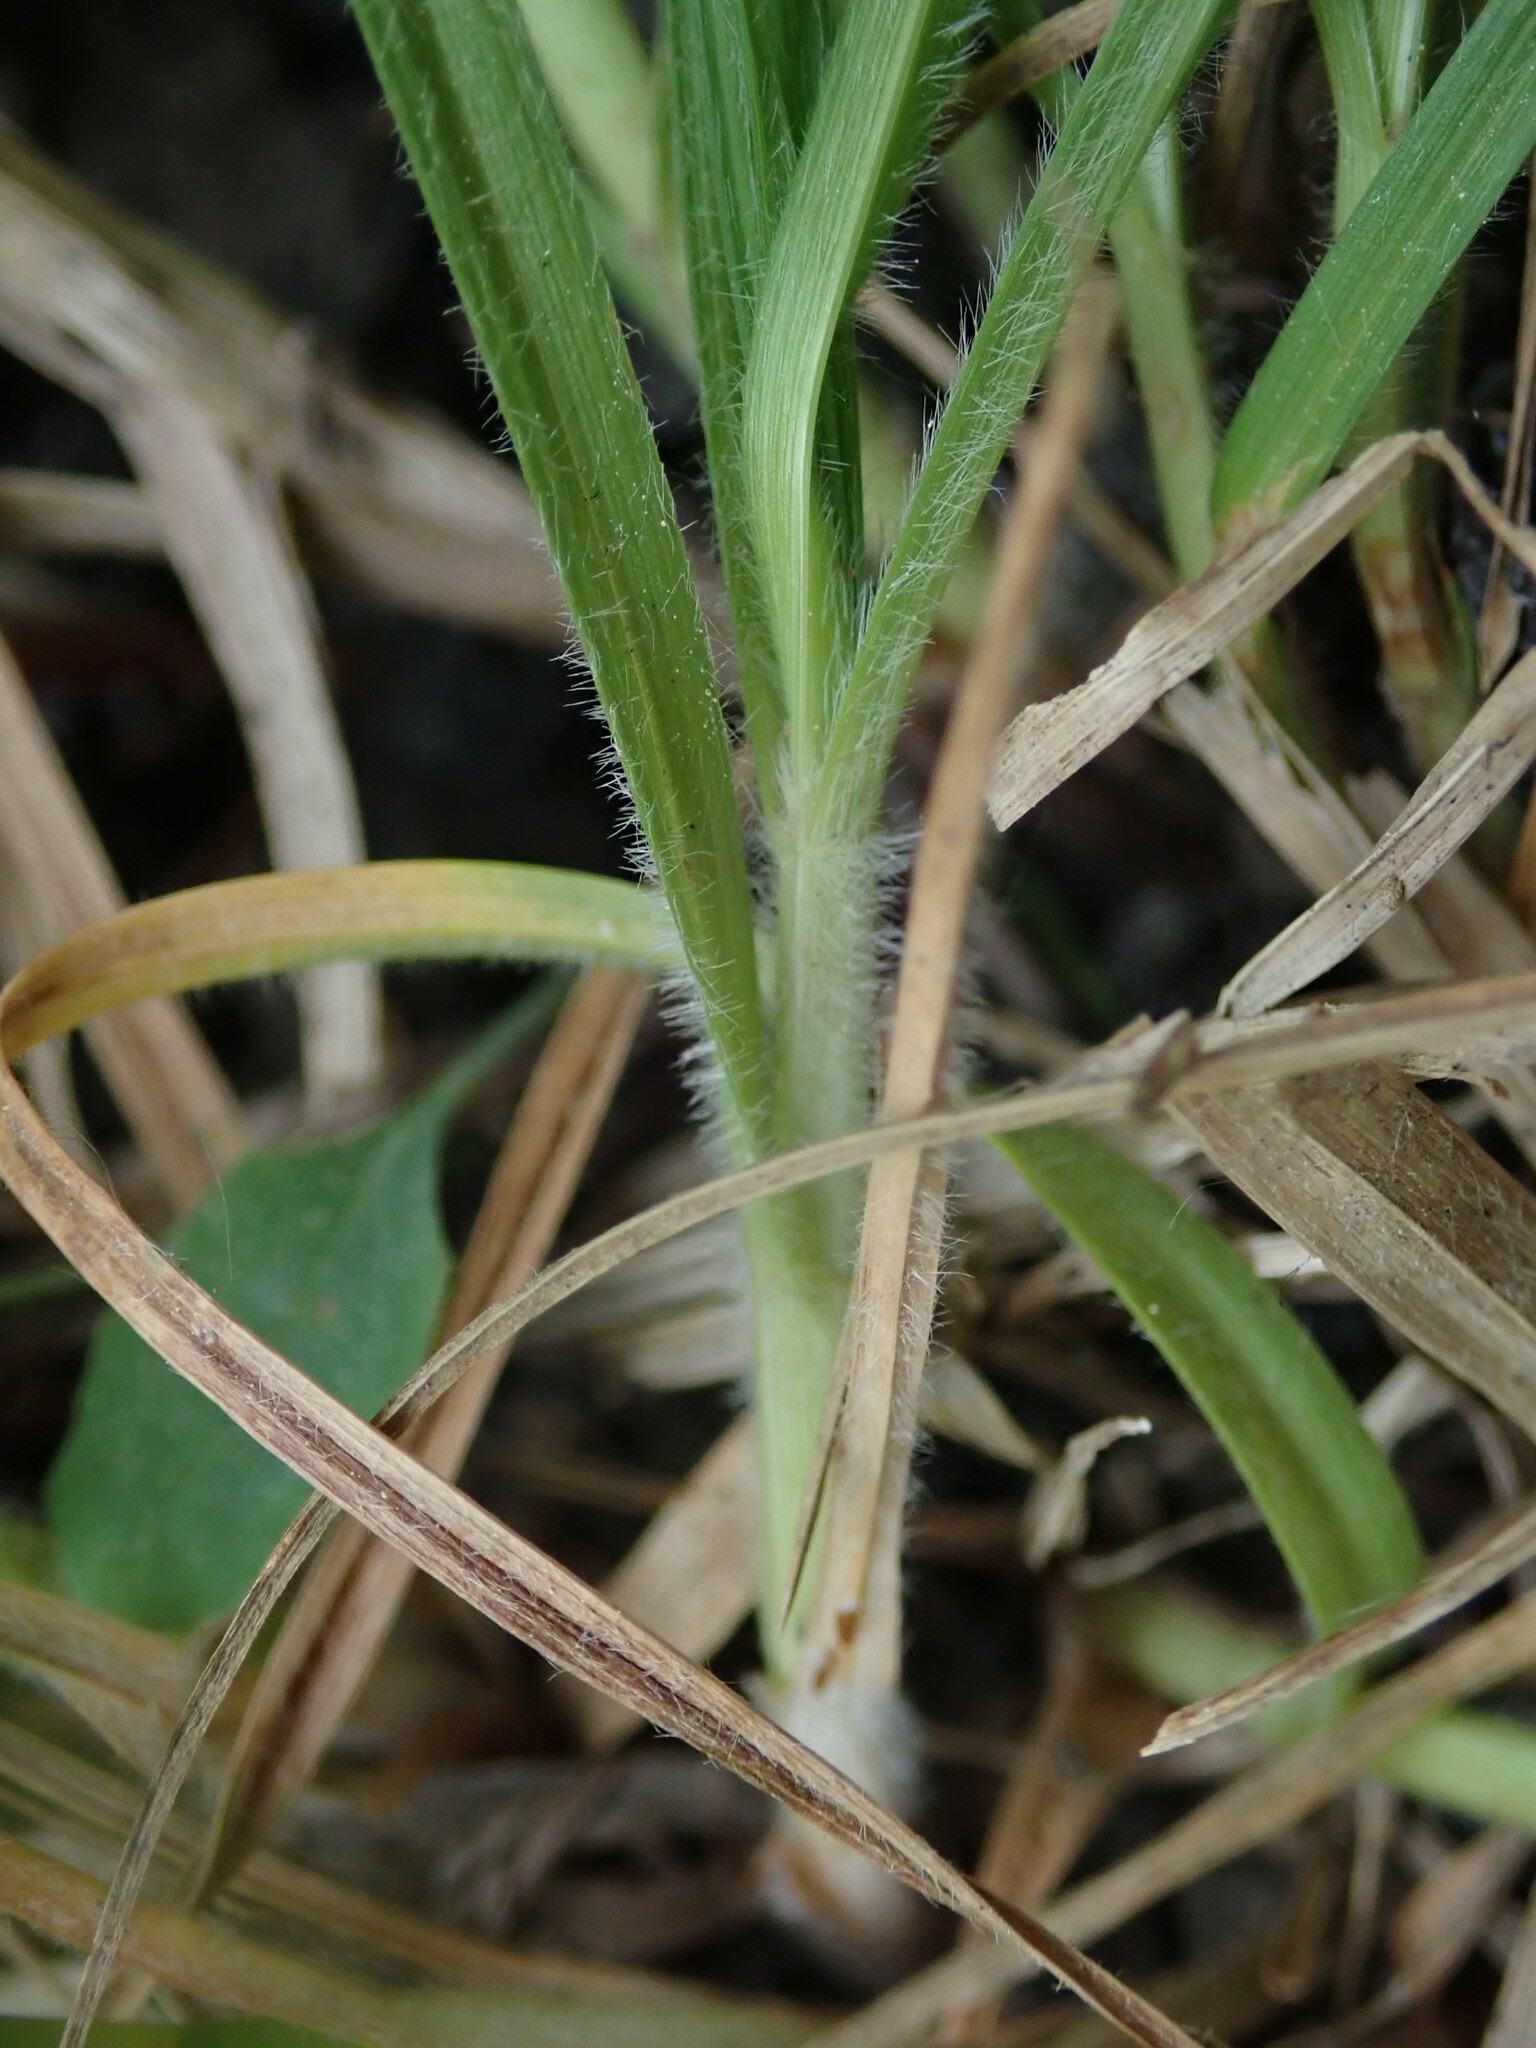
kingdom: Plantae
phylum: Tracheophyta
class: Liliopsida
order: Poales
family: Cyperaceae
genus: Carex
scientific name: Carex hirta
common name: Hairy sedge
